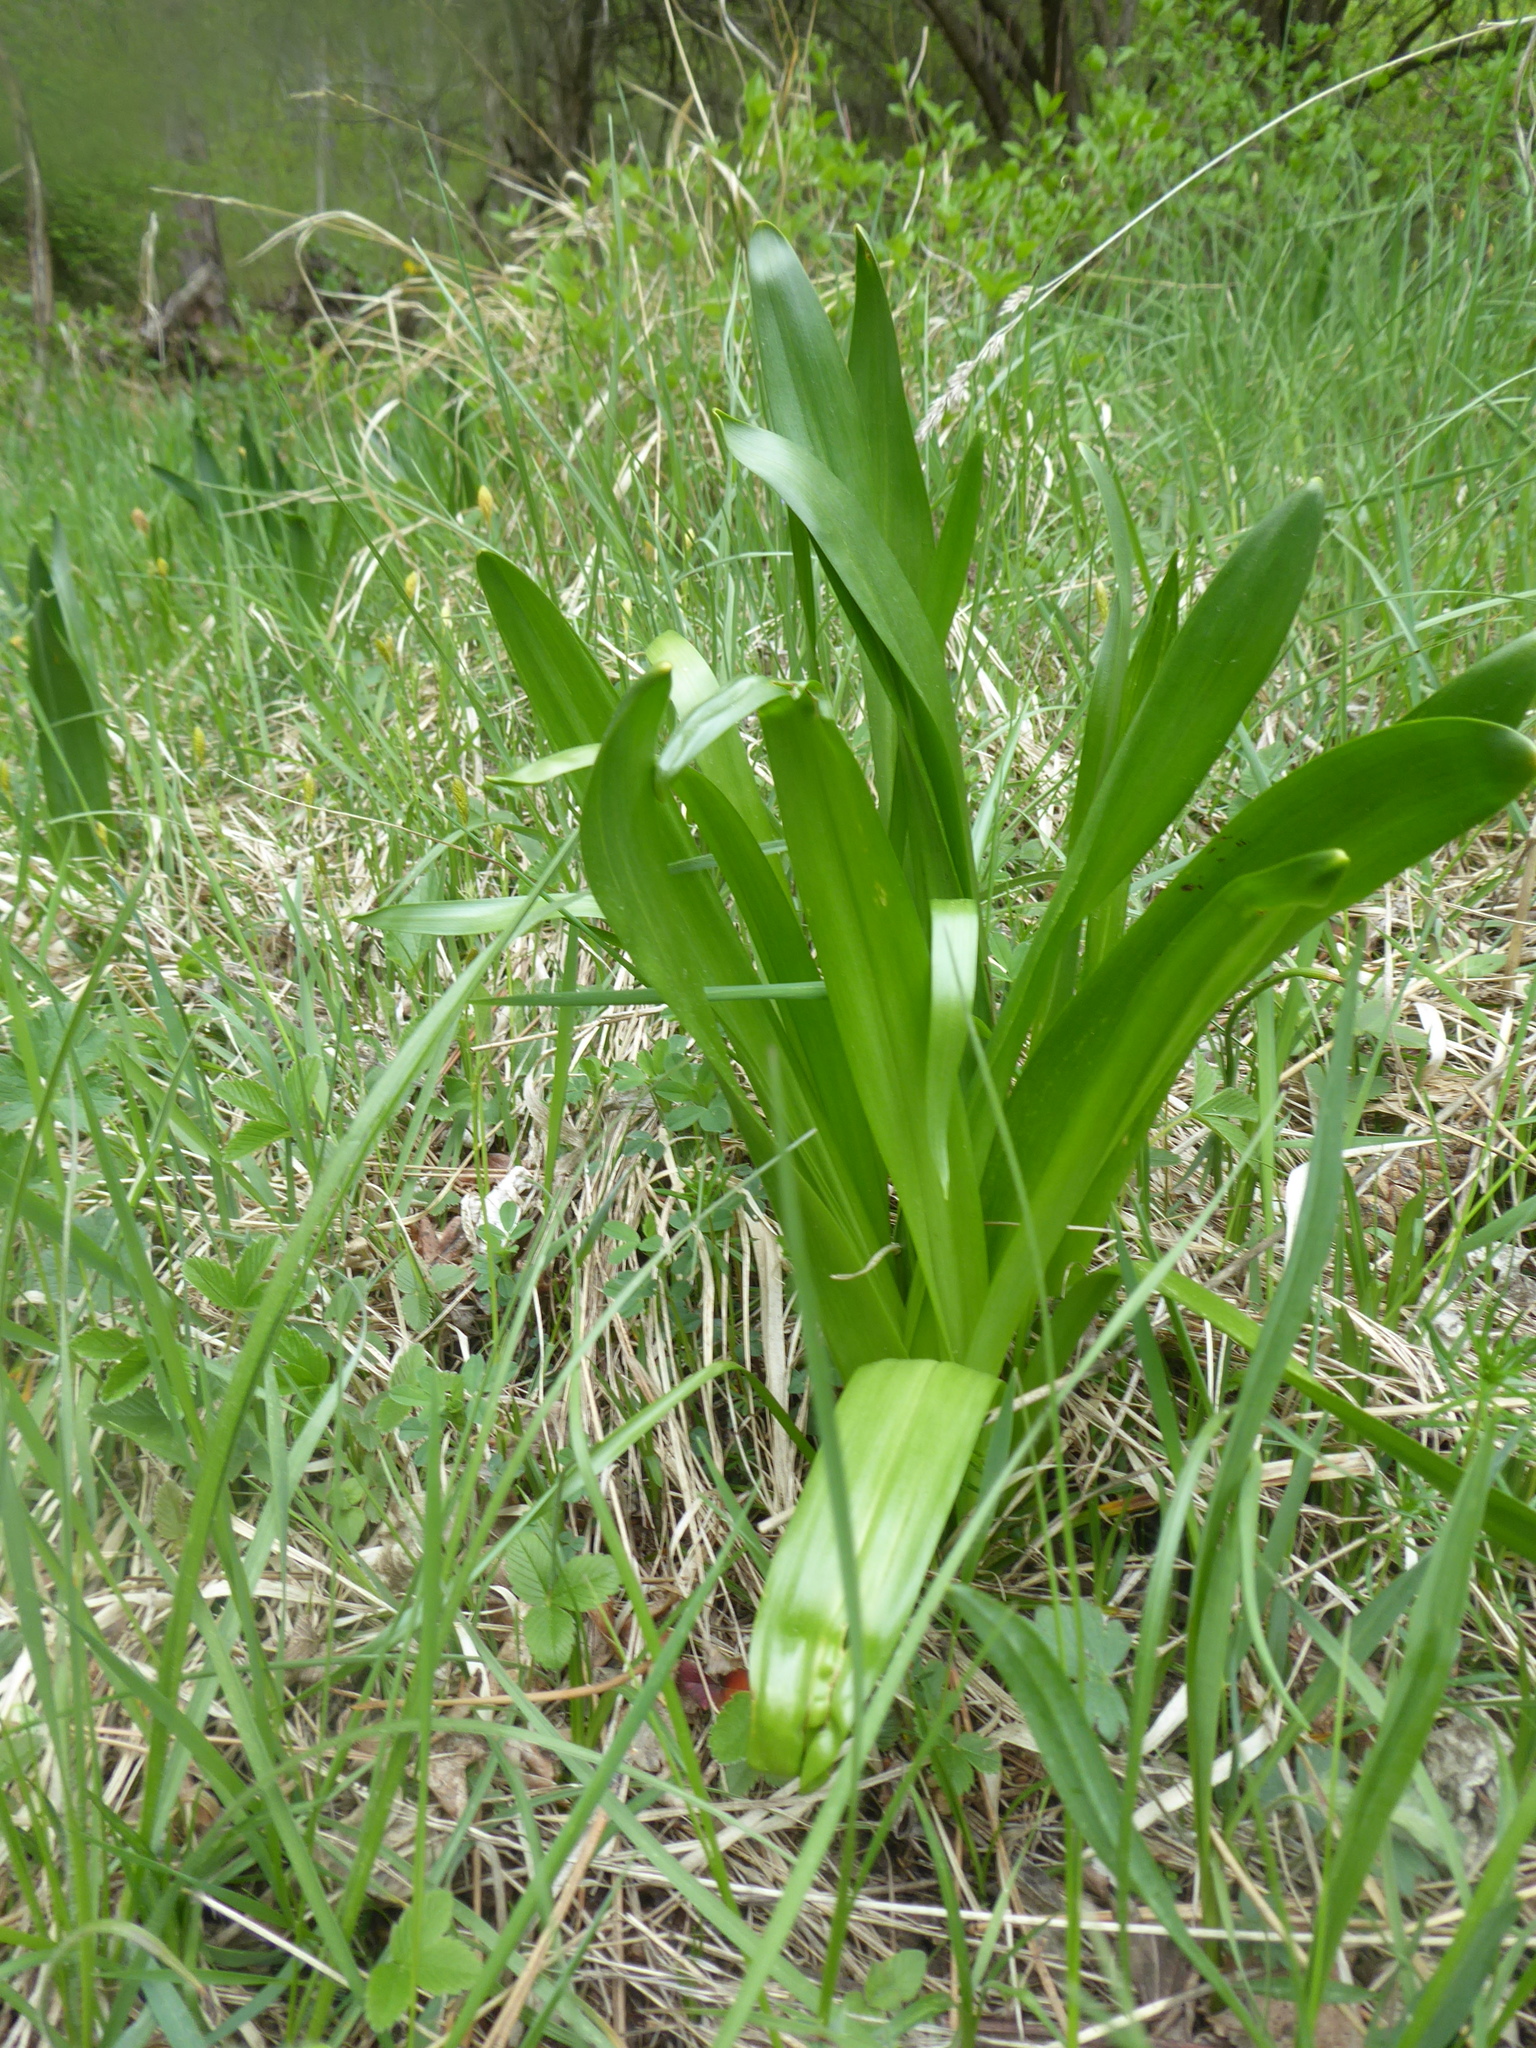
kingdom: Plantae
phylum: Tracheophyta
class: Liliopsida
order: Liliales
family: Colchicaceae
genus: Colchicum
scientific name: Colchicum autumnale
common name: Autumn crocus
